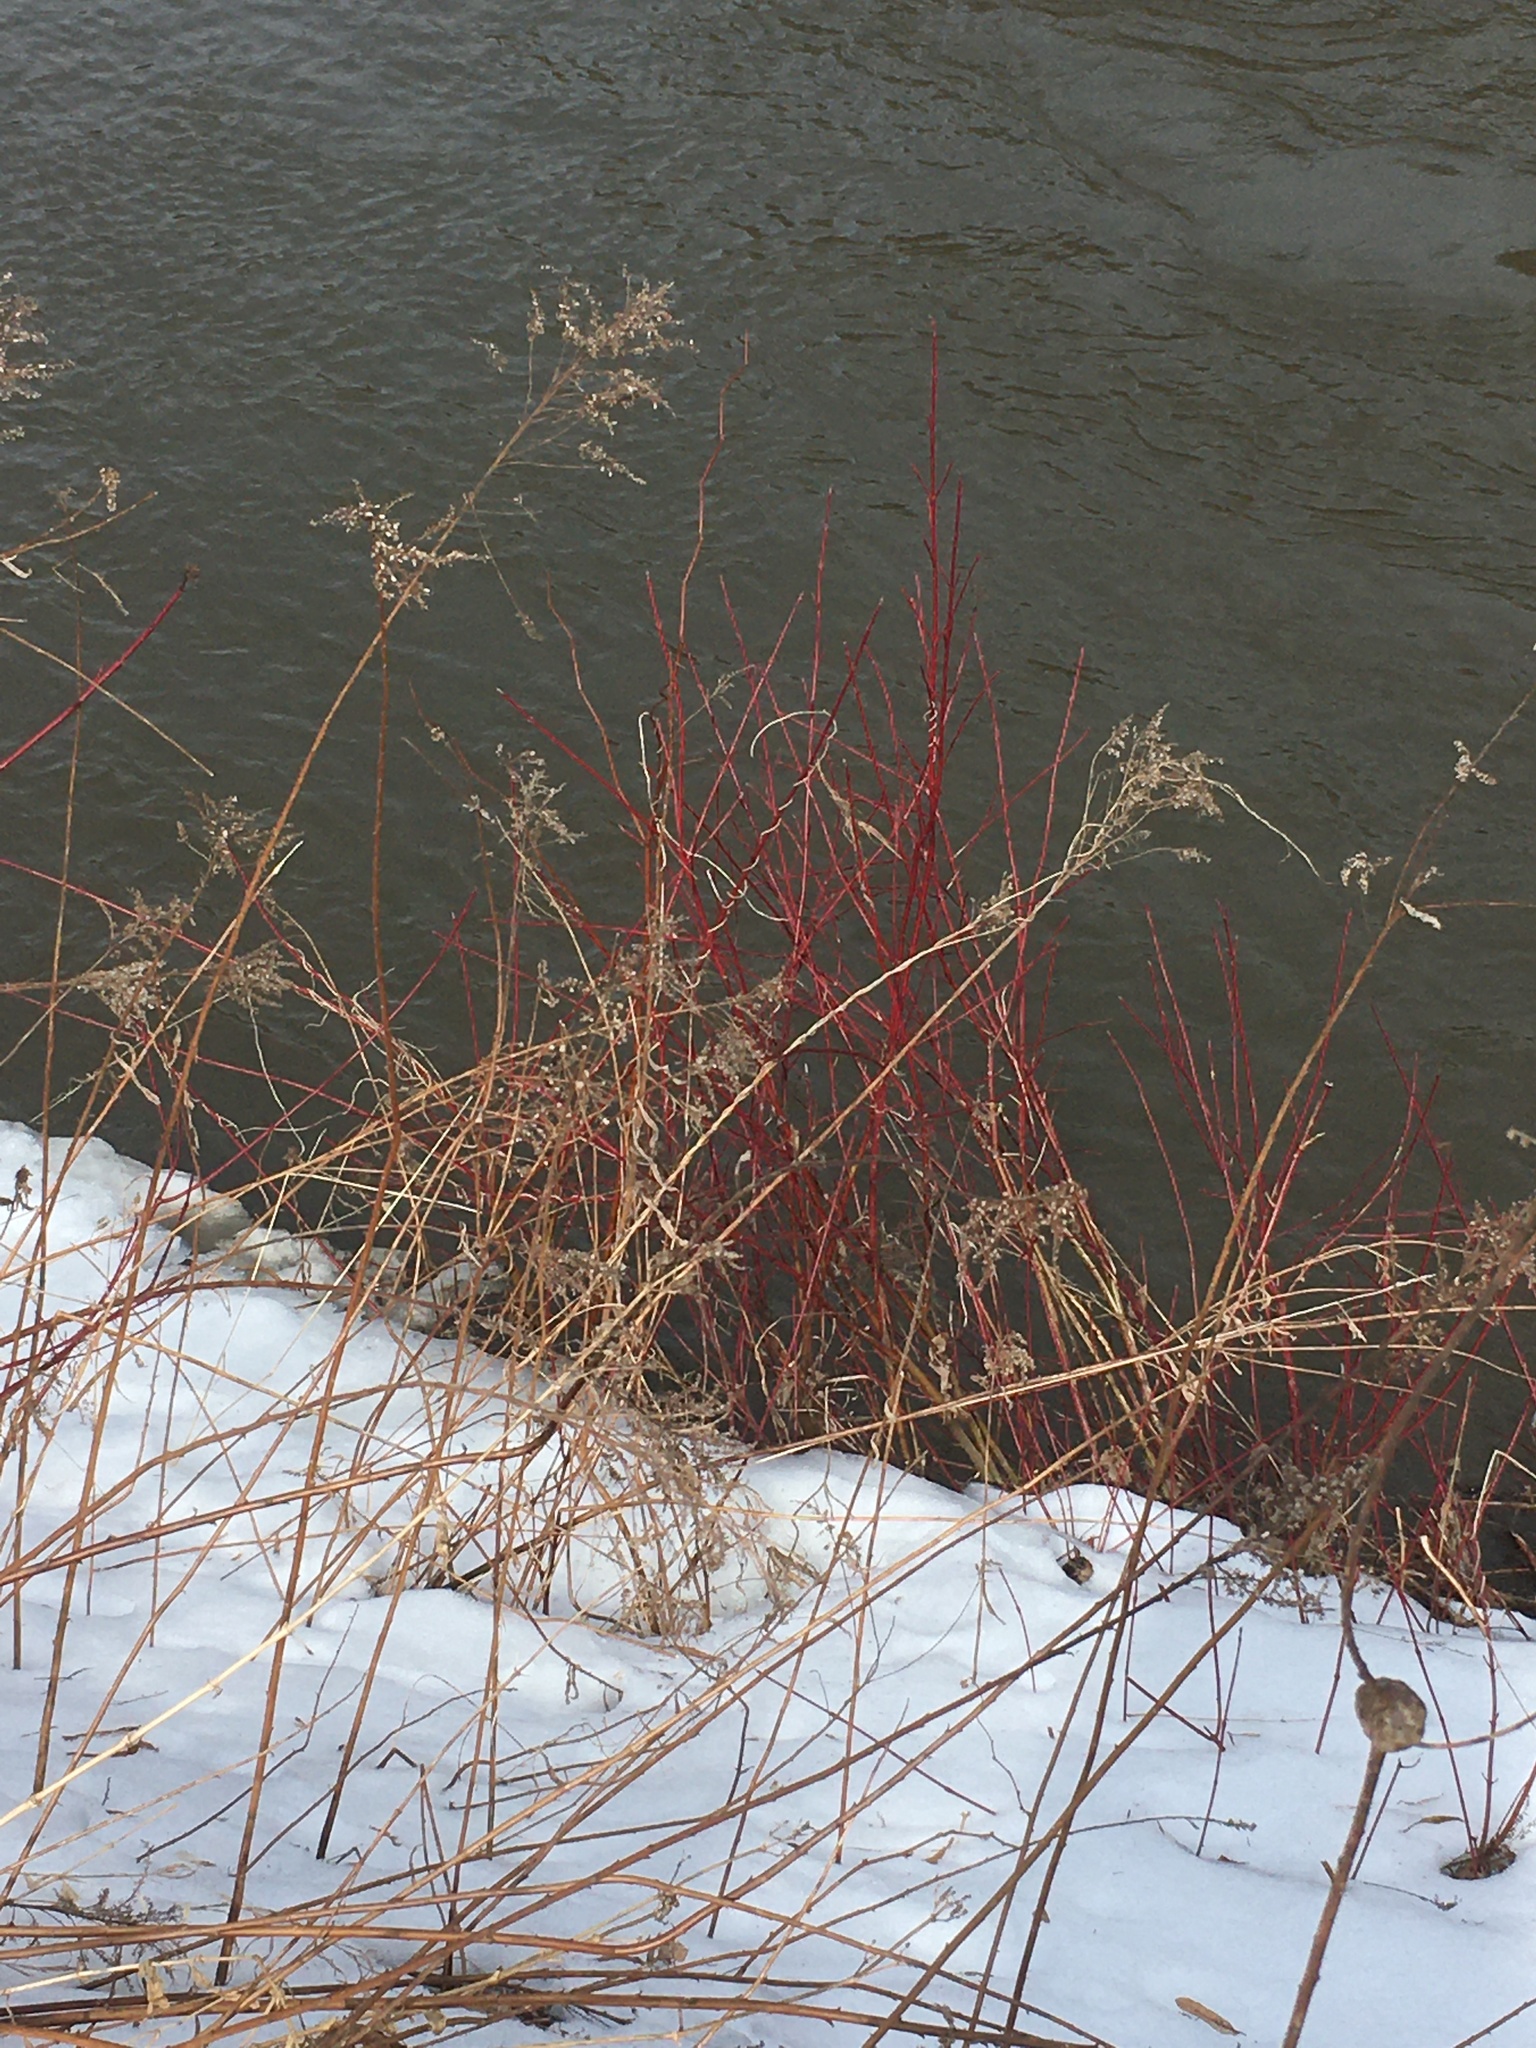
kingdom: Plantae
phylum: Tracheophyta
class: Magnoliopsida
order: Cornales
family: Cornaceae
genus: Cornus
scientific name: Cornus sericea
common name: Red-osier dogwood
